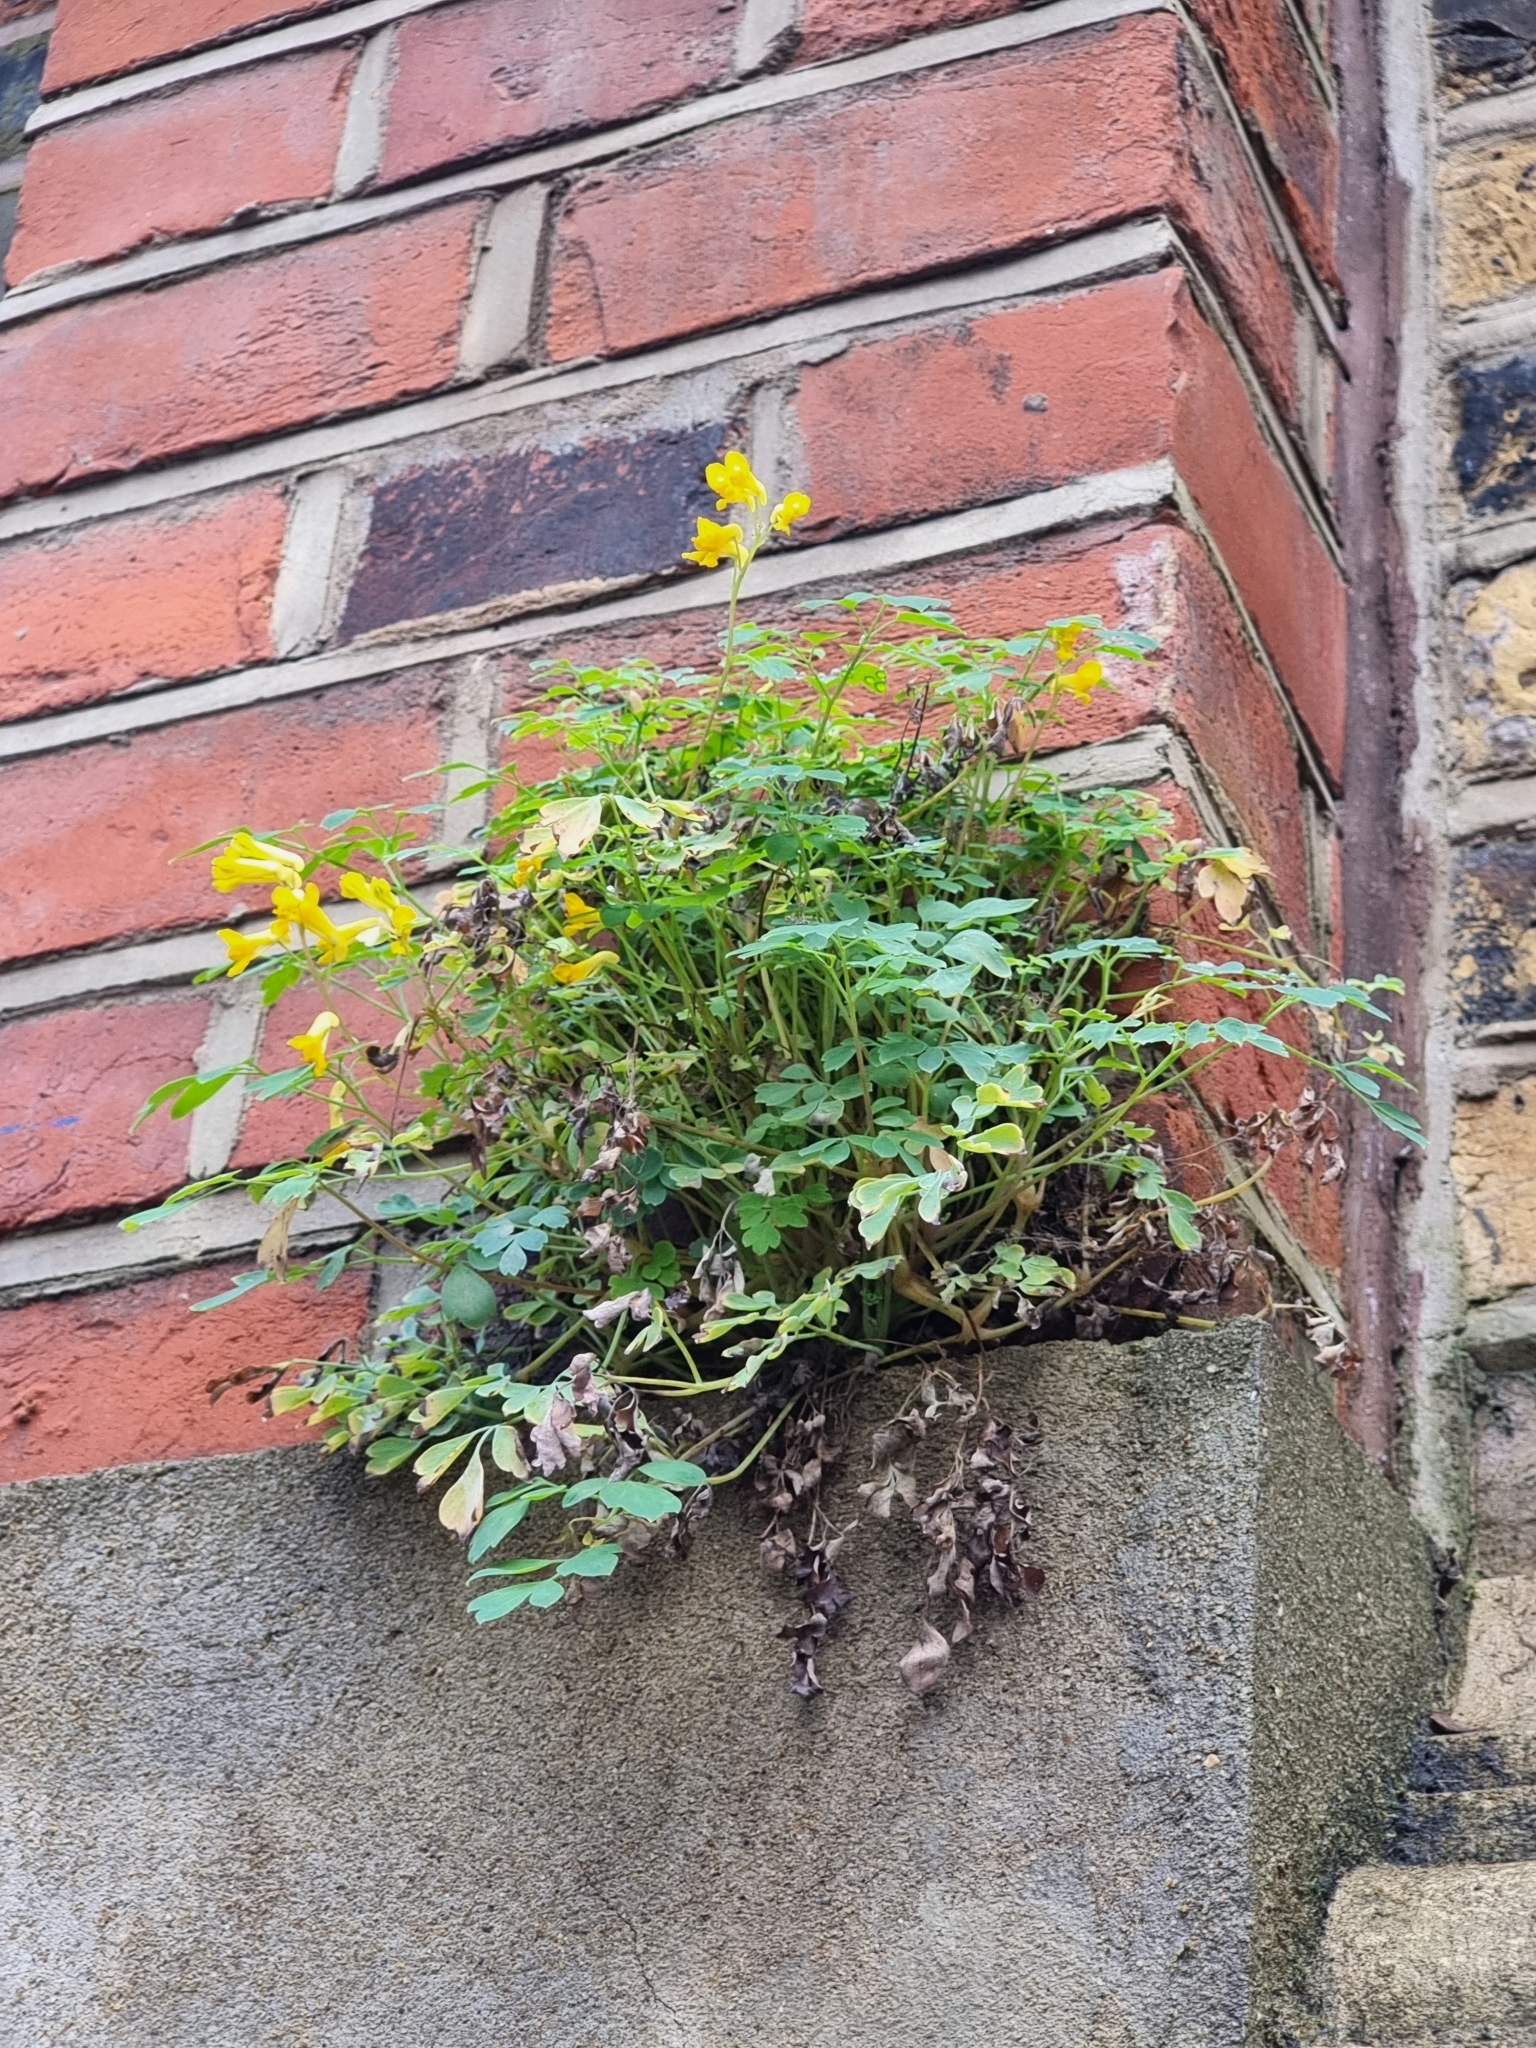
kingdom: Plantae
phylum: Tracheophyta
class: Magnoliopsida
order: Ranunculales
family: Papaveraceae
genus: Pseudofumaria
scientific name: Pseudofumaria lutea
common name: Yellow corydalis
